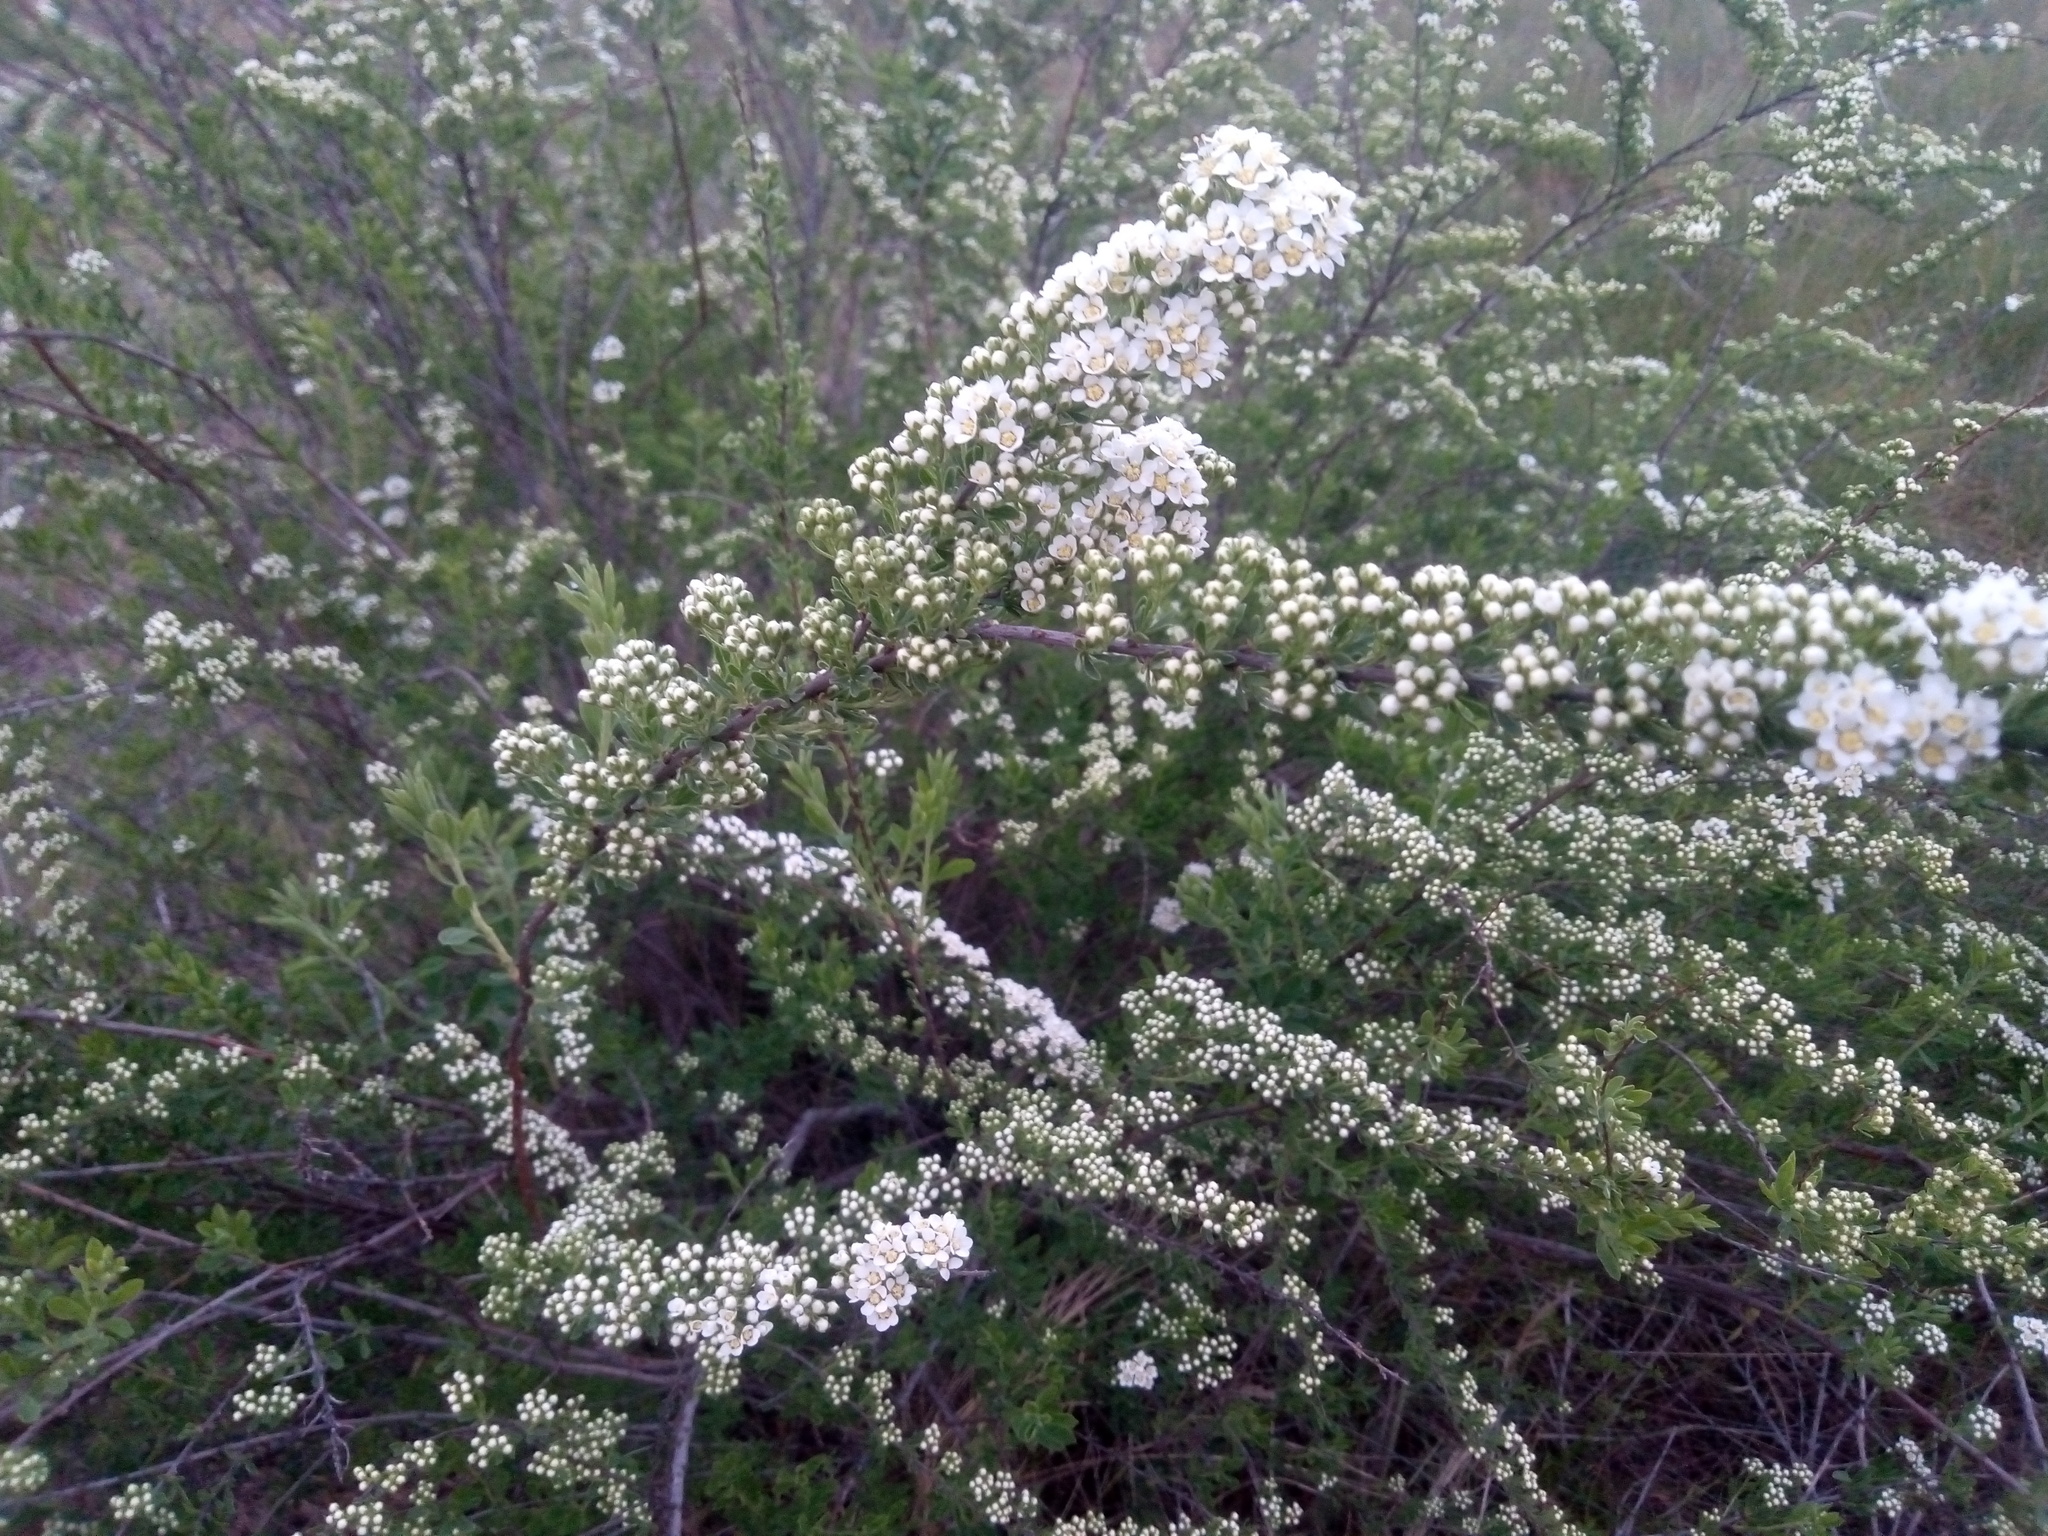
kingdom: Plantae
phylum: Tracheophyta
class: Magnoliopsida
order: Rosales
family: Rosaceae
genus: Spiraea
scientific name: Spiraea crenata
